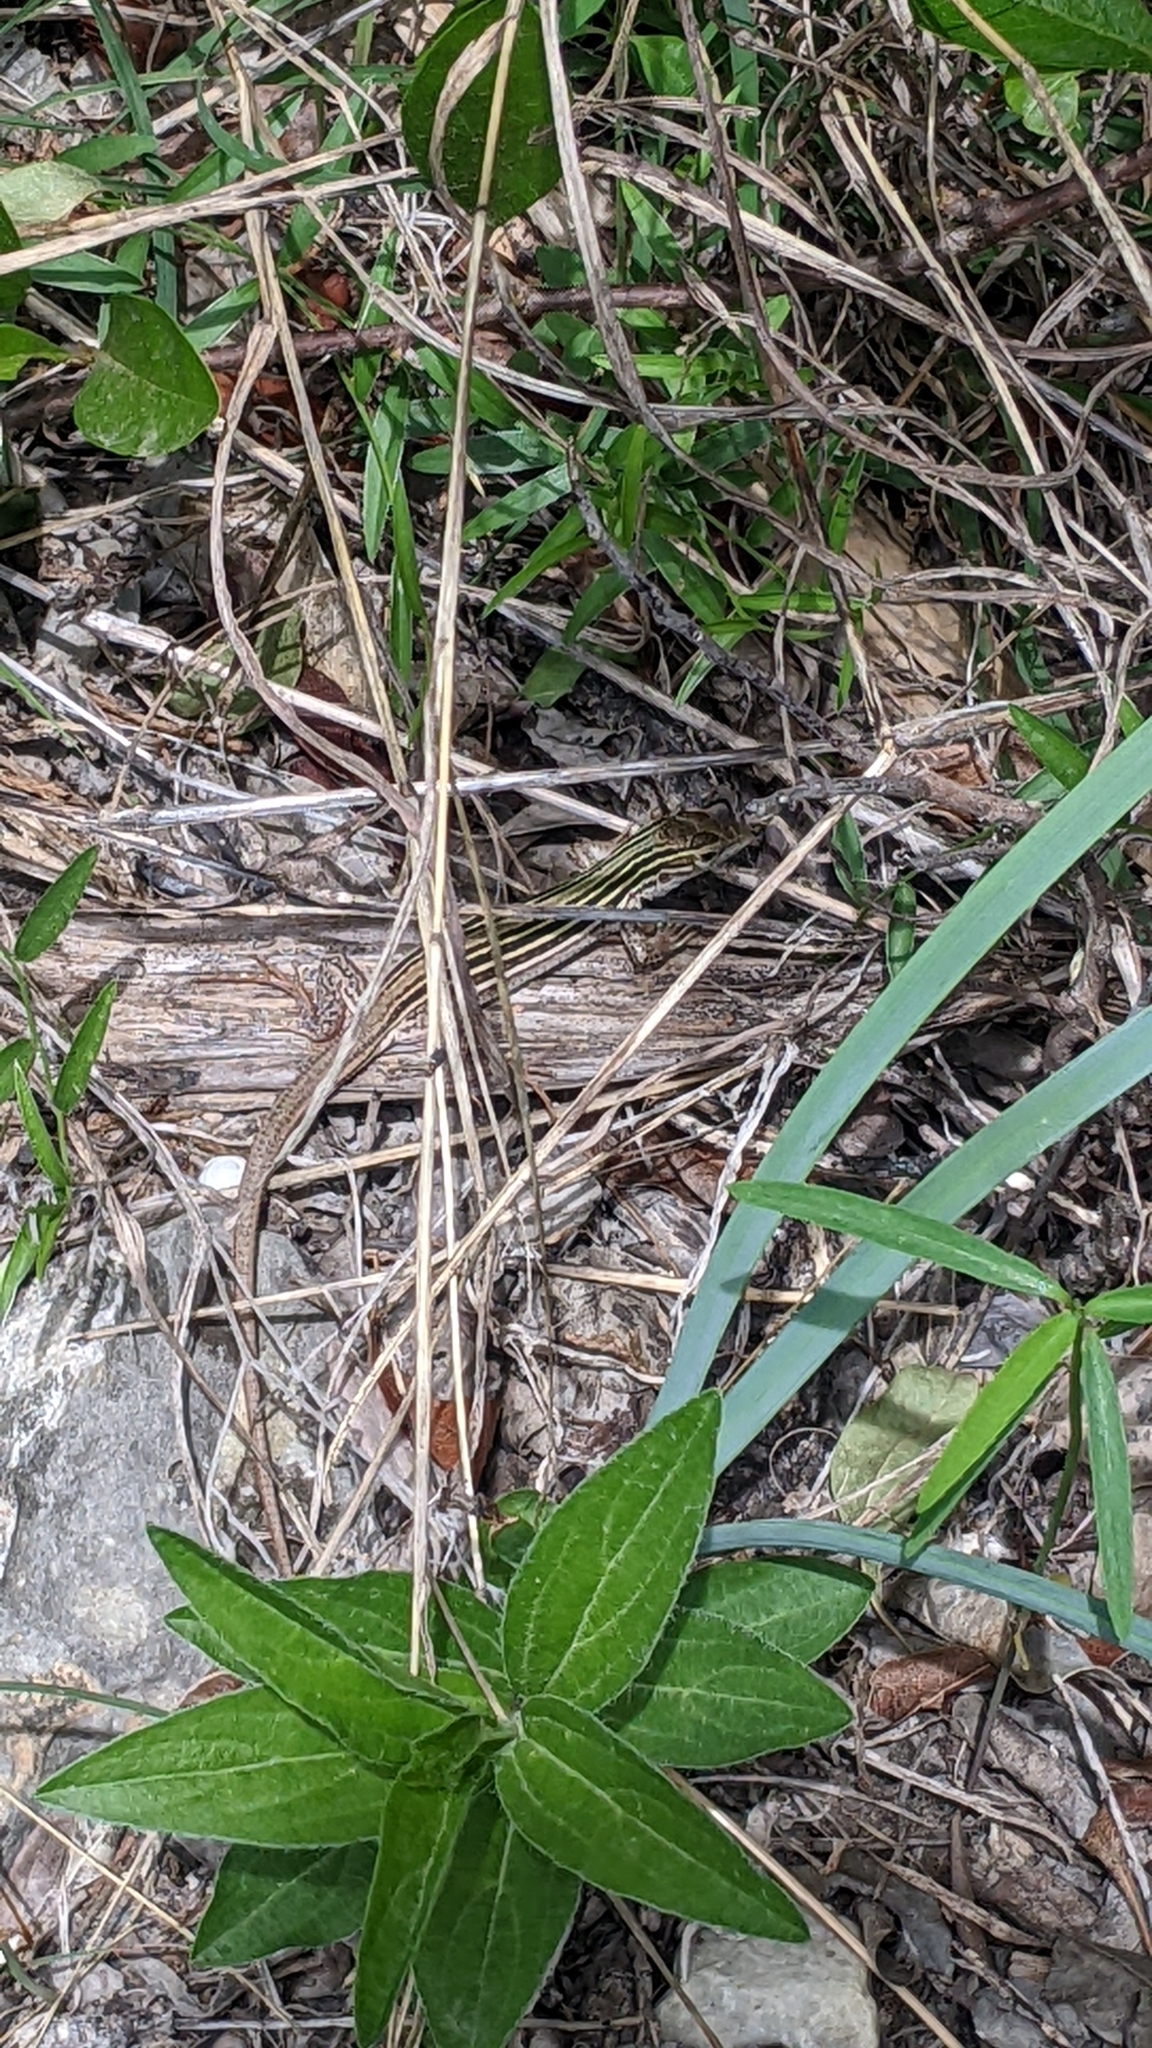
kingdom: Animalia
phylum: Chordata
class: Squamata
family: Teiidae
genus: Aspidoscelis
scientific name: Aspidoscelis gularis
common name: Eastern spotted whiptail
